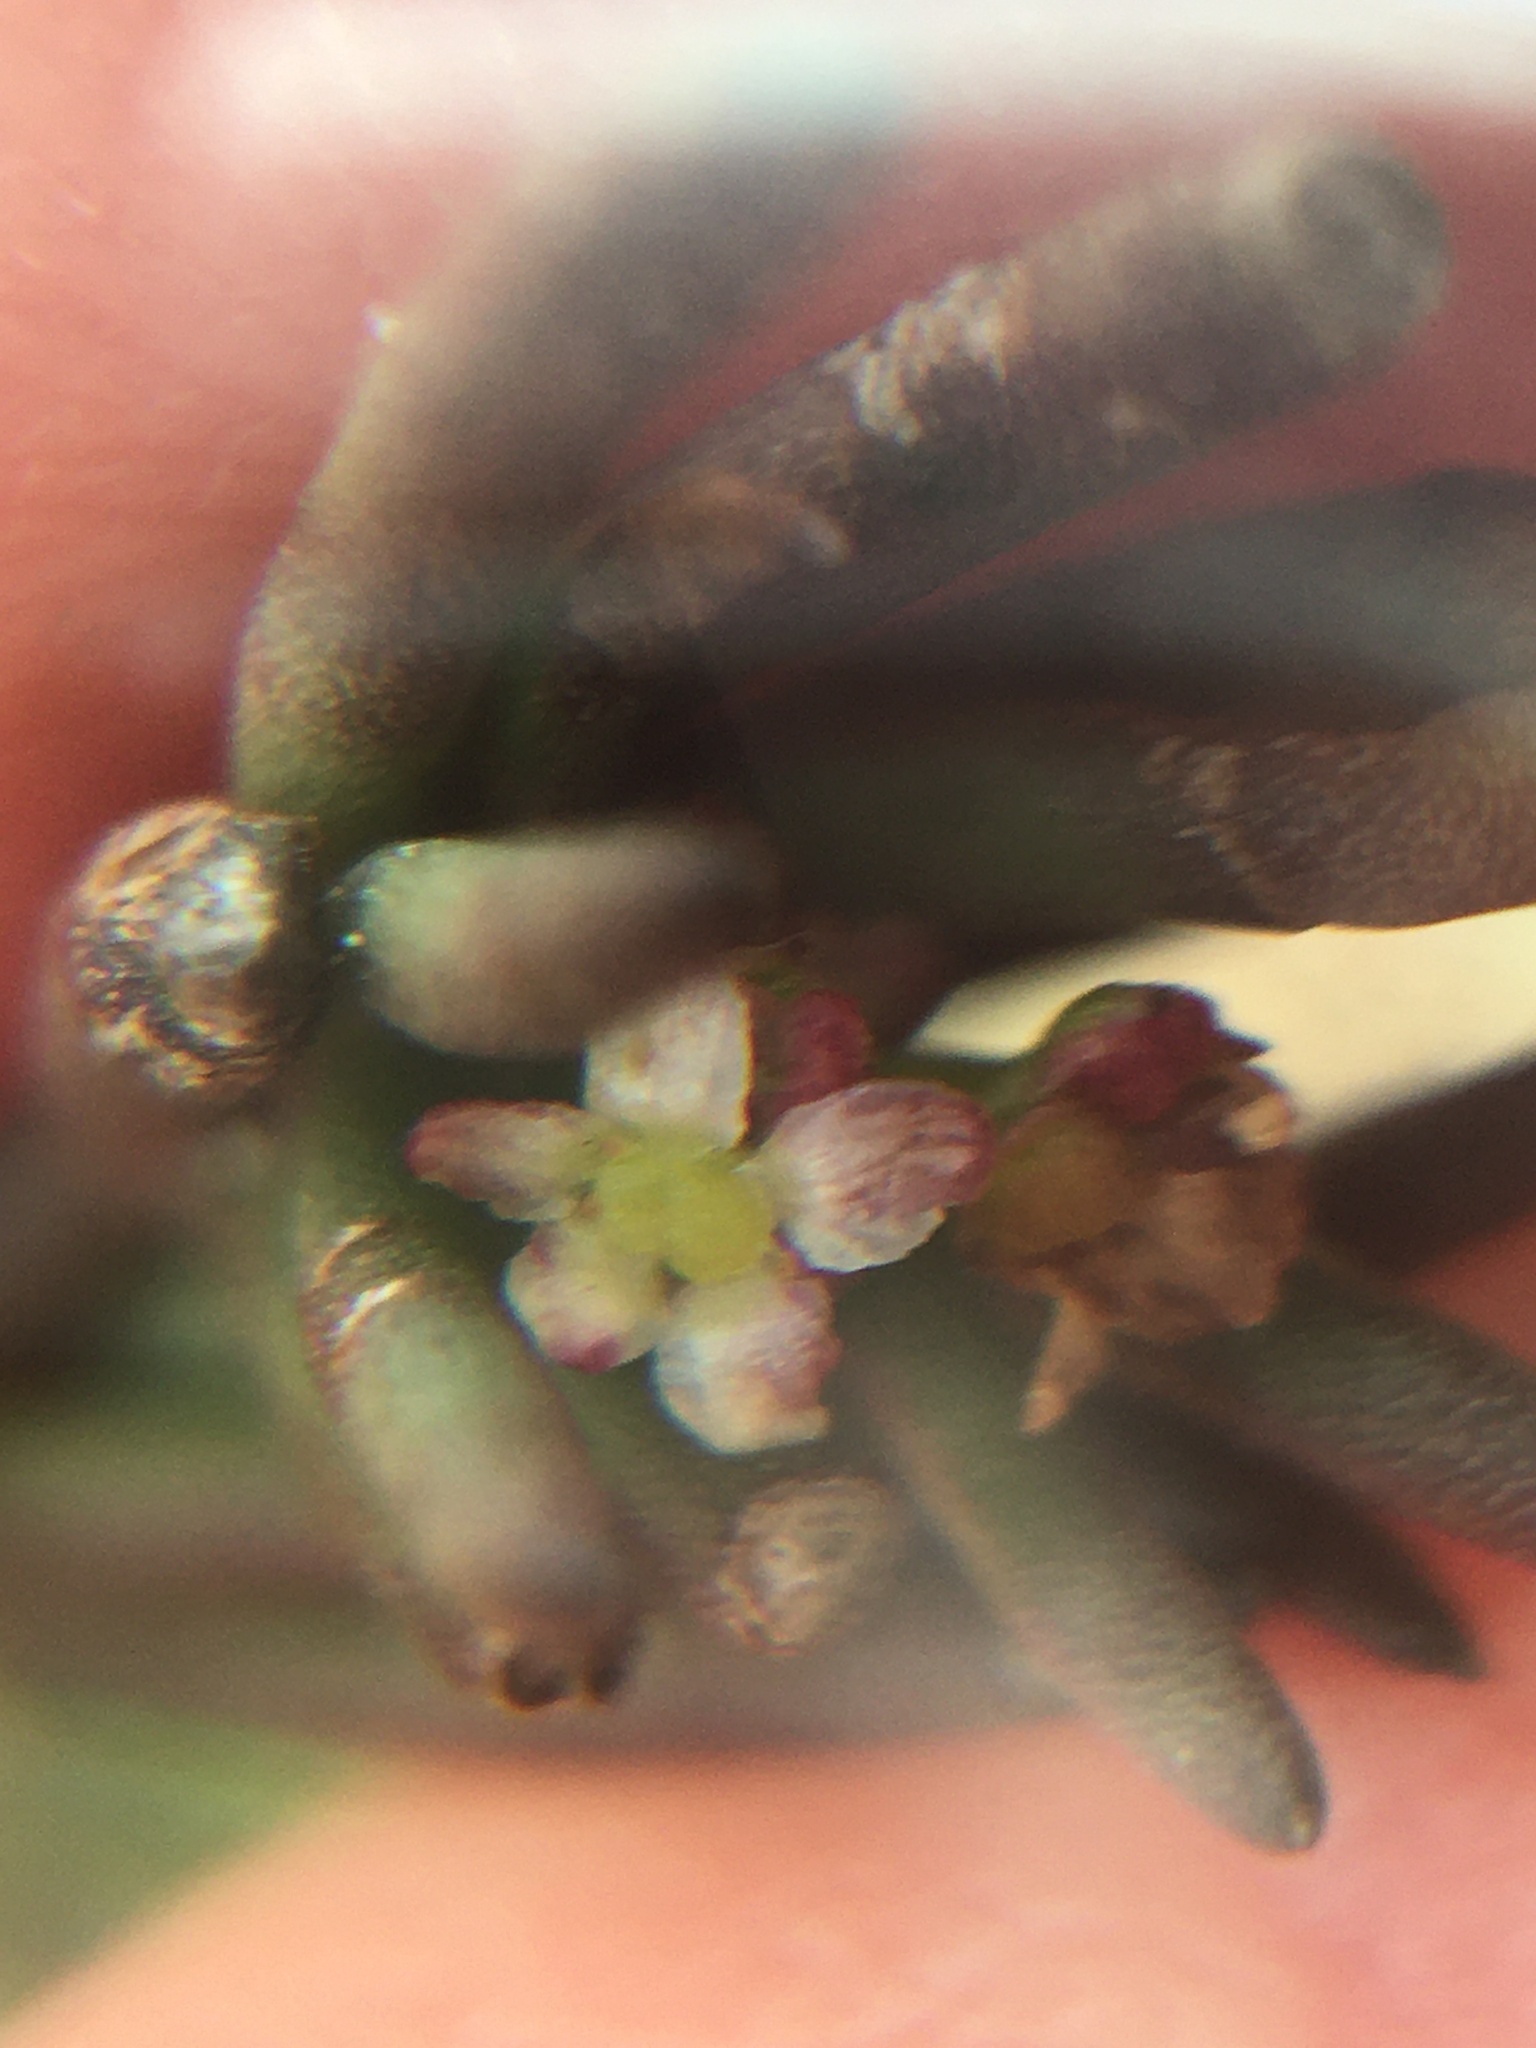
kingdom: Plantae
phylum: Tracheophyta
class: Magnoliopsida
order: Apiales
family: Apiaceae
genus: Centella
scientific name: Centella macrocarpa
